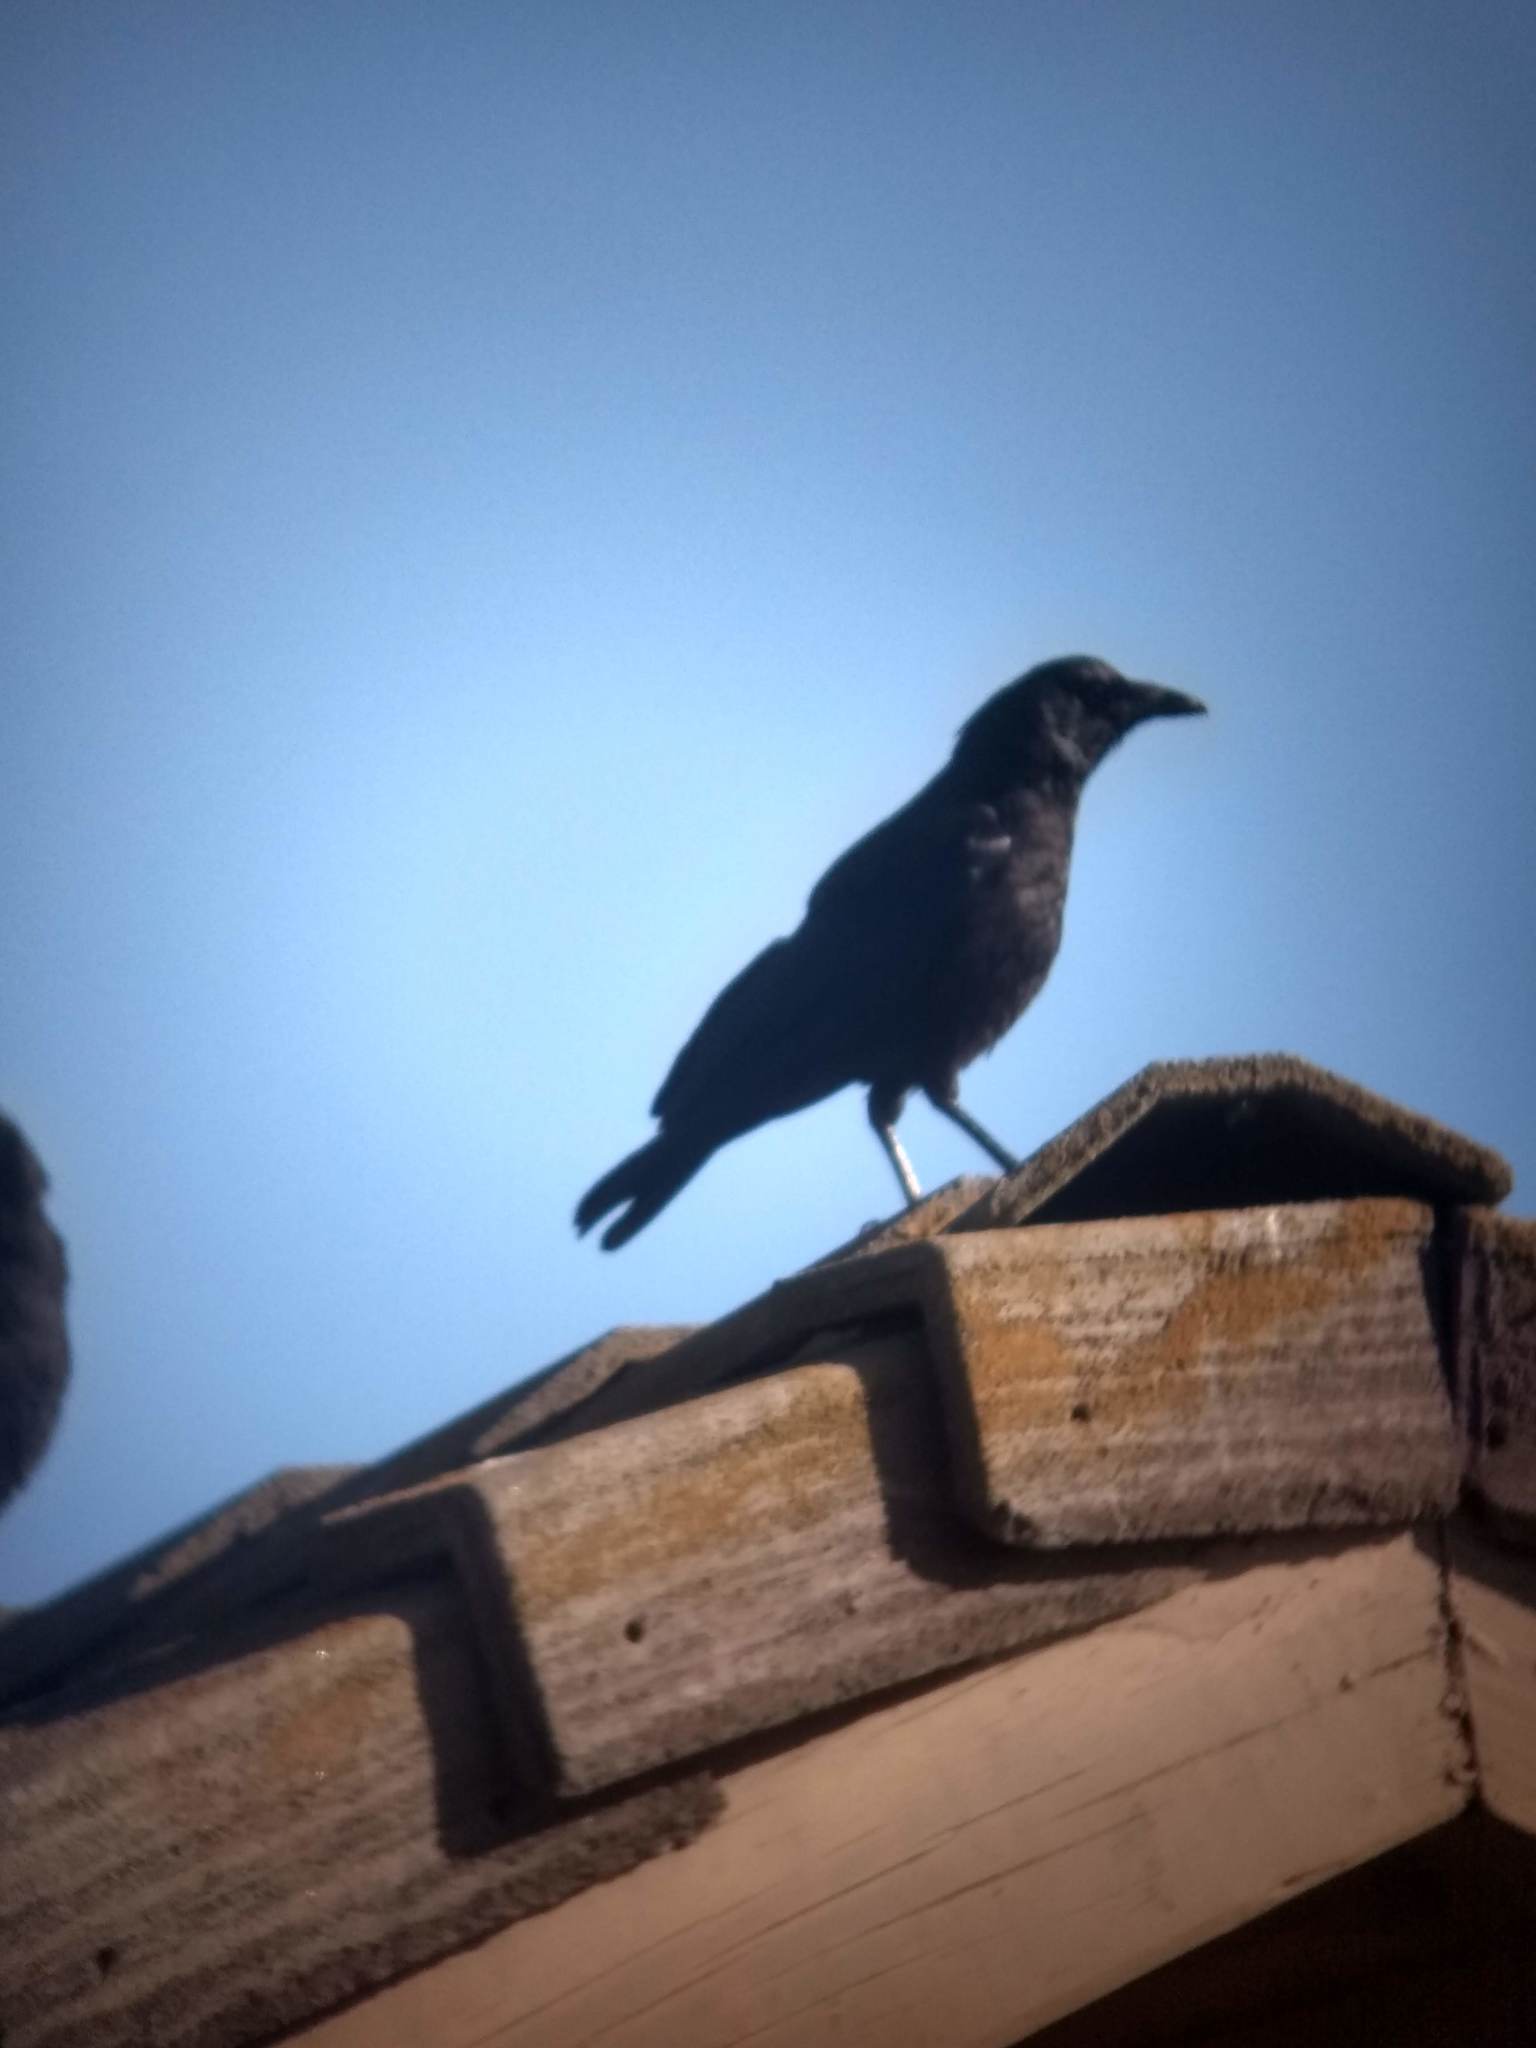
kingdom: Animalia
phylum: Chordata
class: Aves
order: Passeriformes
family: Corvidae
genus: Corvus
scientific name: Corvus brachyrhynchos
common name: American crow
